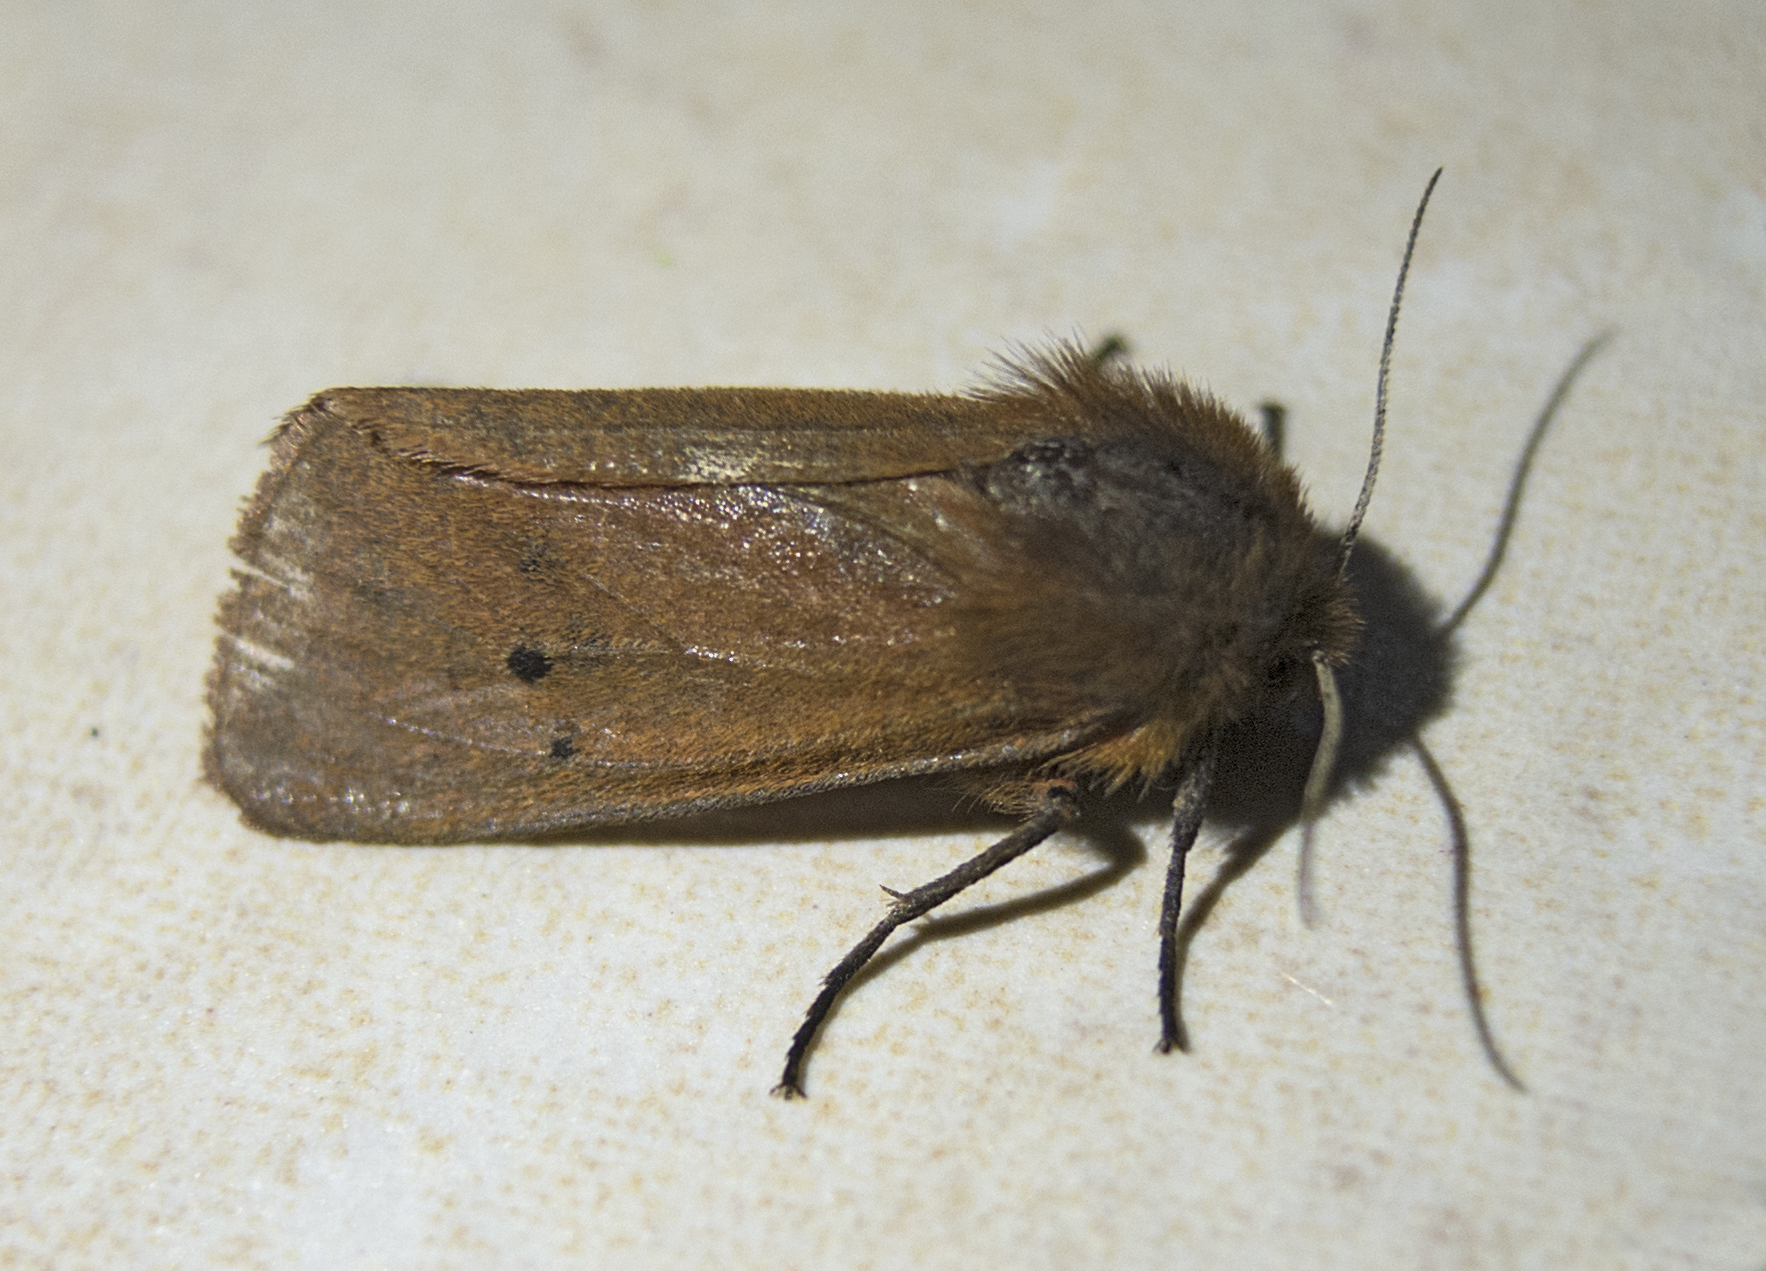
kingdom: Animalia
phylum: Arthropoda
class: Insecta
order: Lepidoptera
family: Erebidae
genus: Phragmatobia
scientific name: Phragmatobia fuliginosa
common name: Ruby tiger
